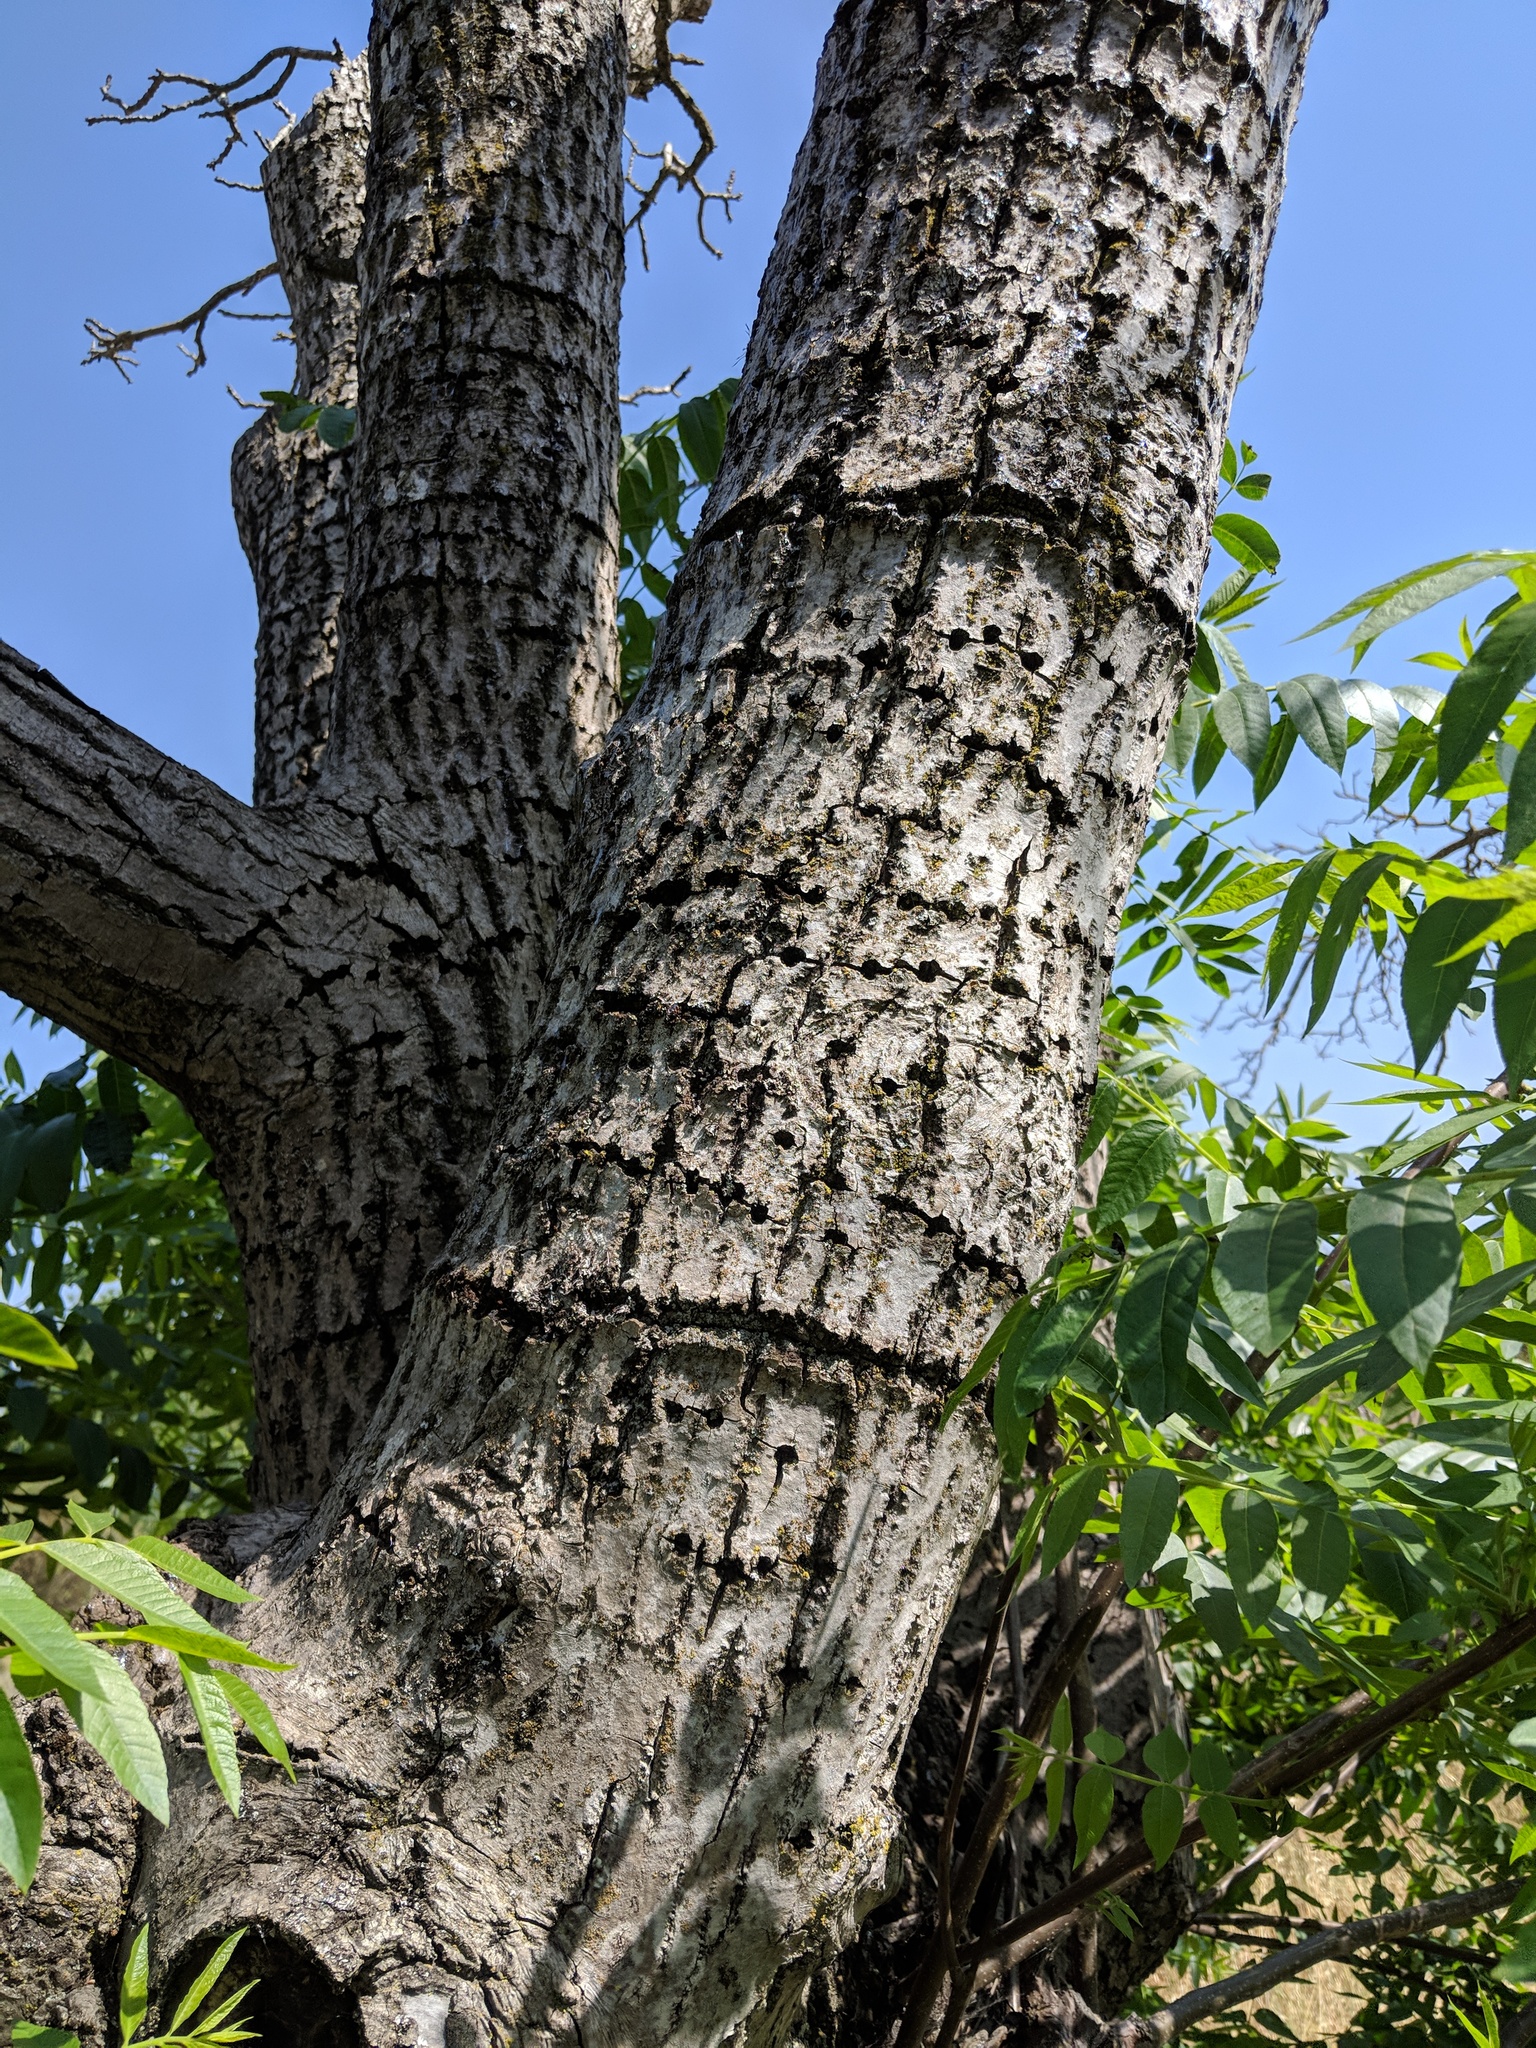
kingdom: Animalia
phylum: Chordata
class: Aves
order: Piciformes
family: Picidae
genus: Sphyrapicus
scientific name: Sphyrapicus
